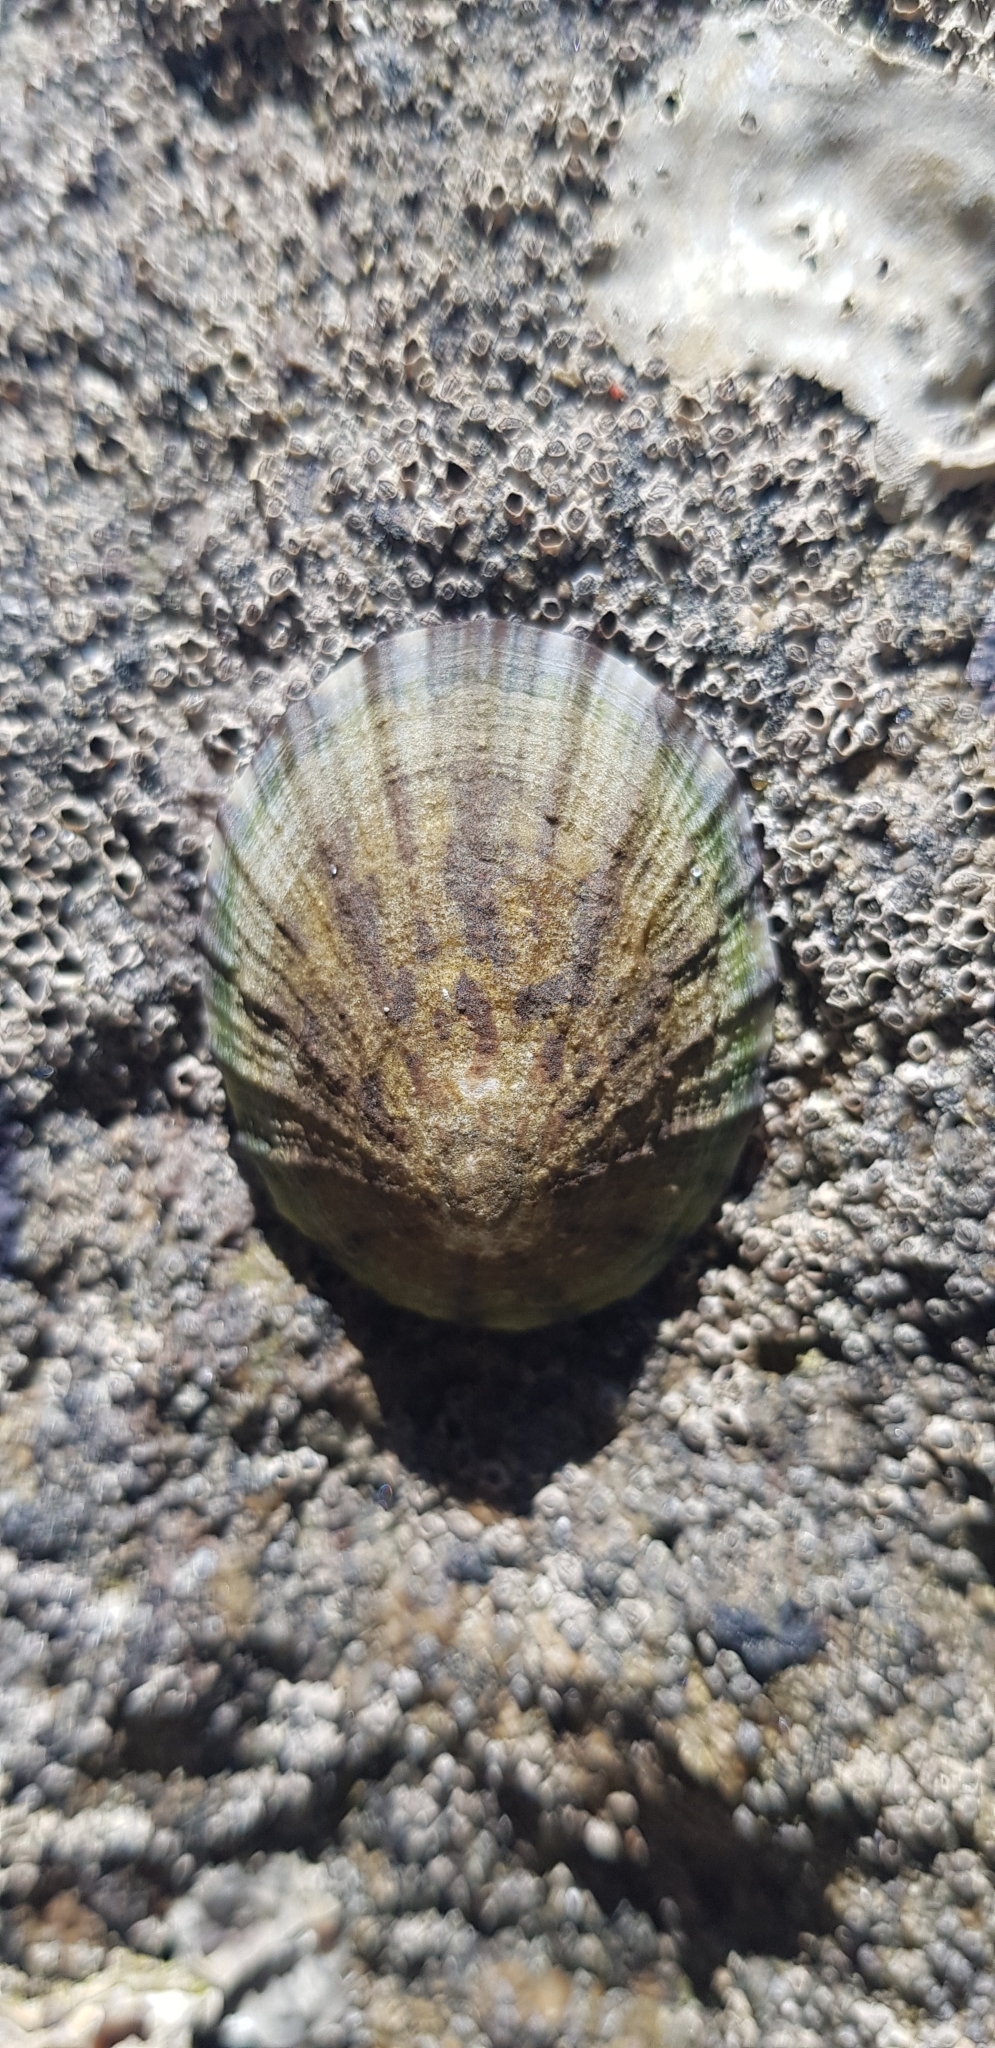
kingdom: Animalia
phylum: Mollusca
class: Gastropoda
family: Nacellidae
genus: Cellana
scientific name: Cellana radians
